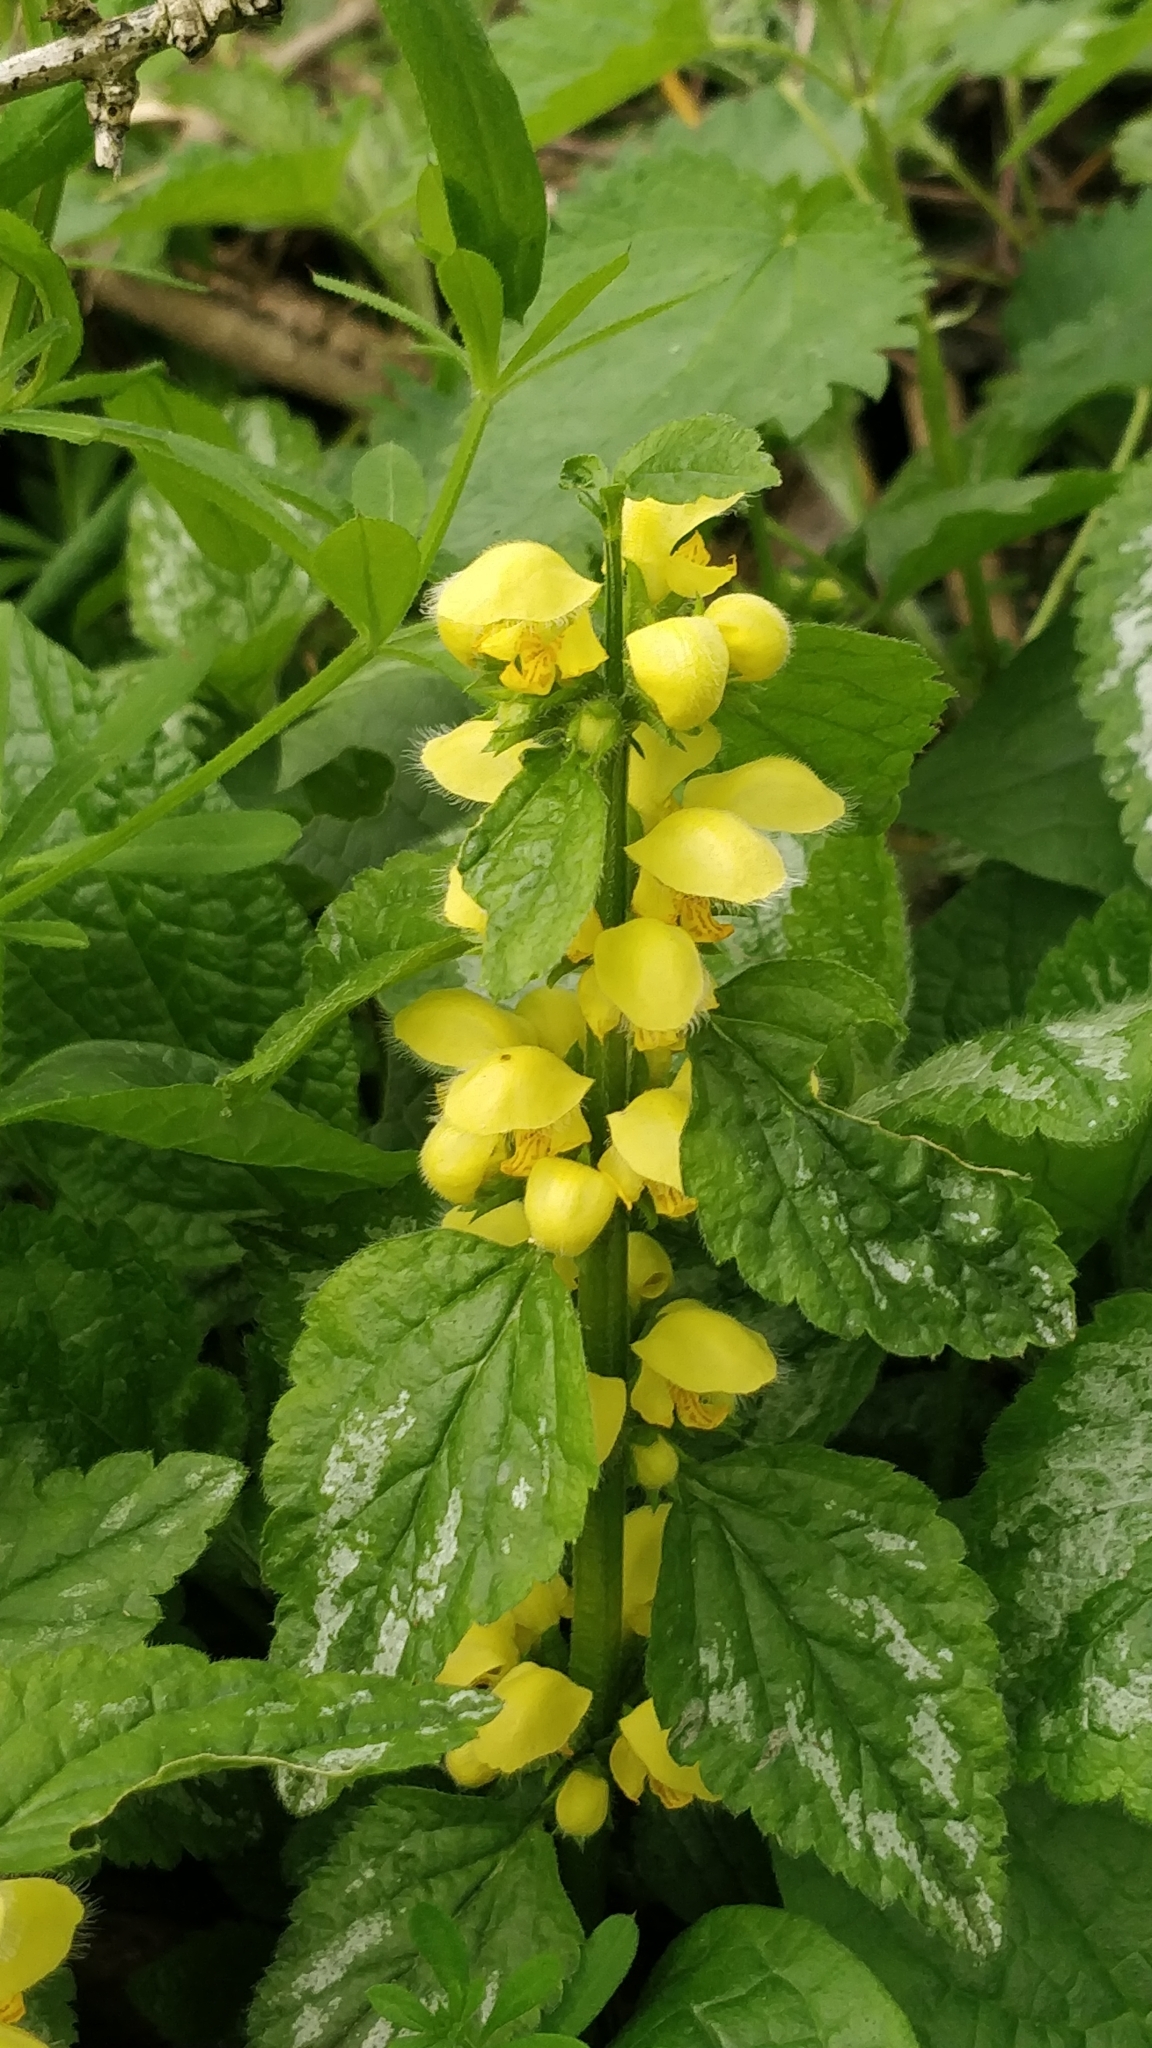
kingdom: Plantae
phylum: Tracheophyta
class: Magnoliopsida
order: Lamiales
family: Lamiaceae
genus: Lamium
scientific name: Lamium galeobdolon
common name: Yellow archangel
